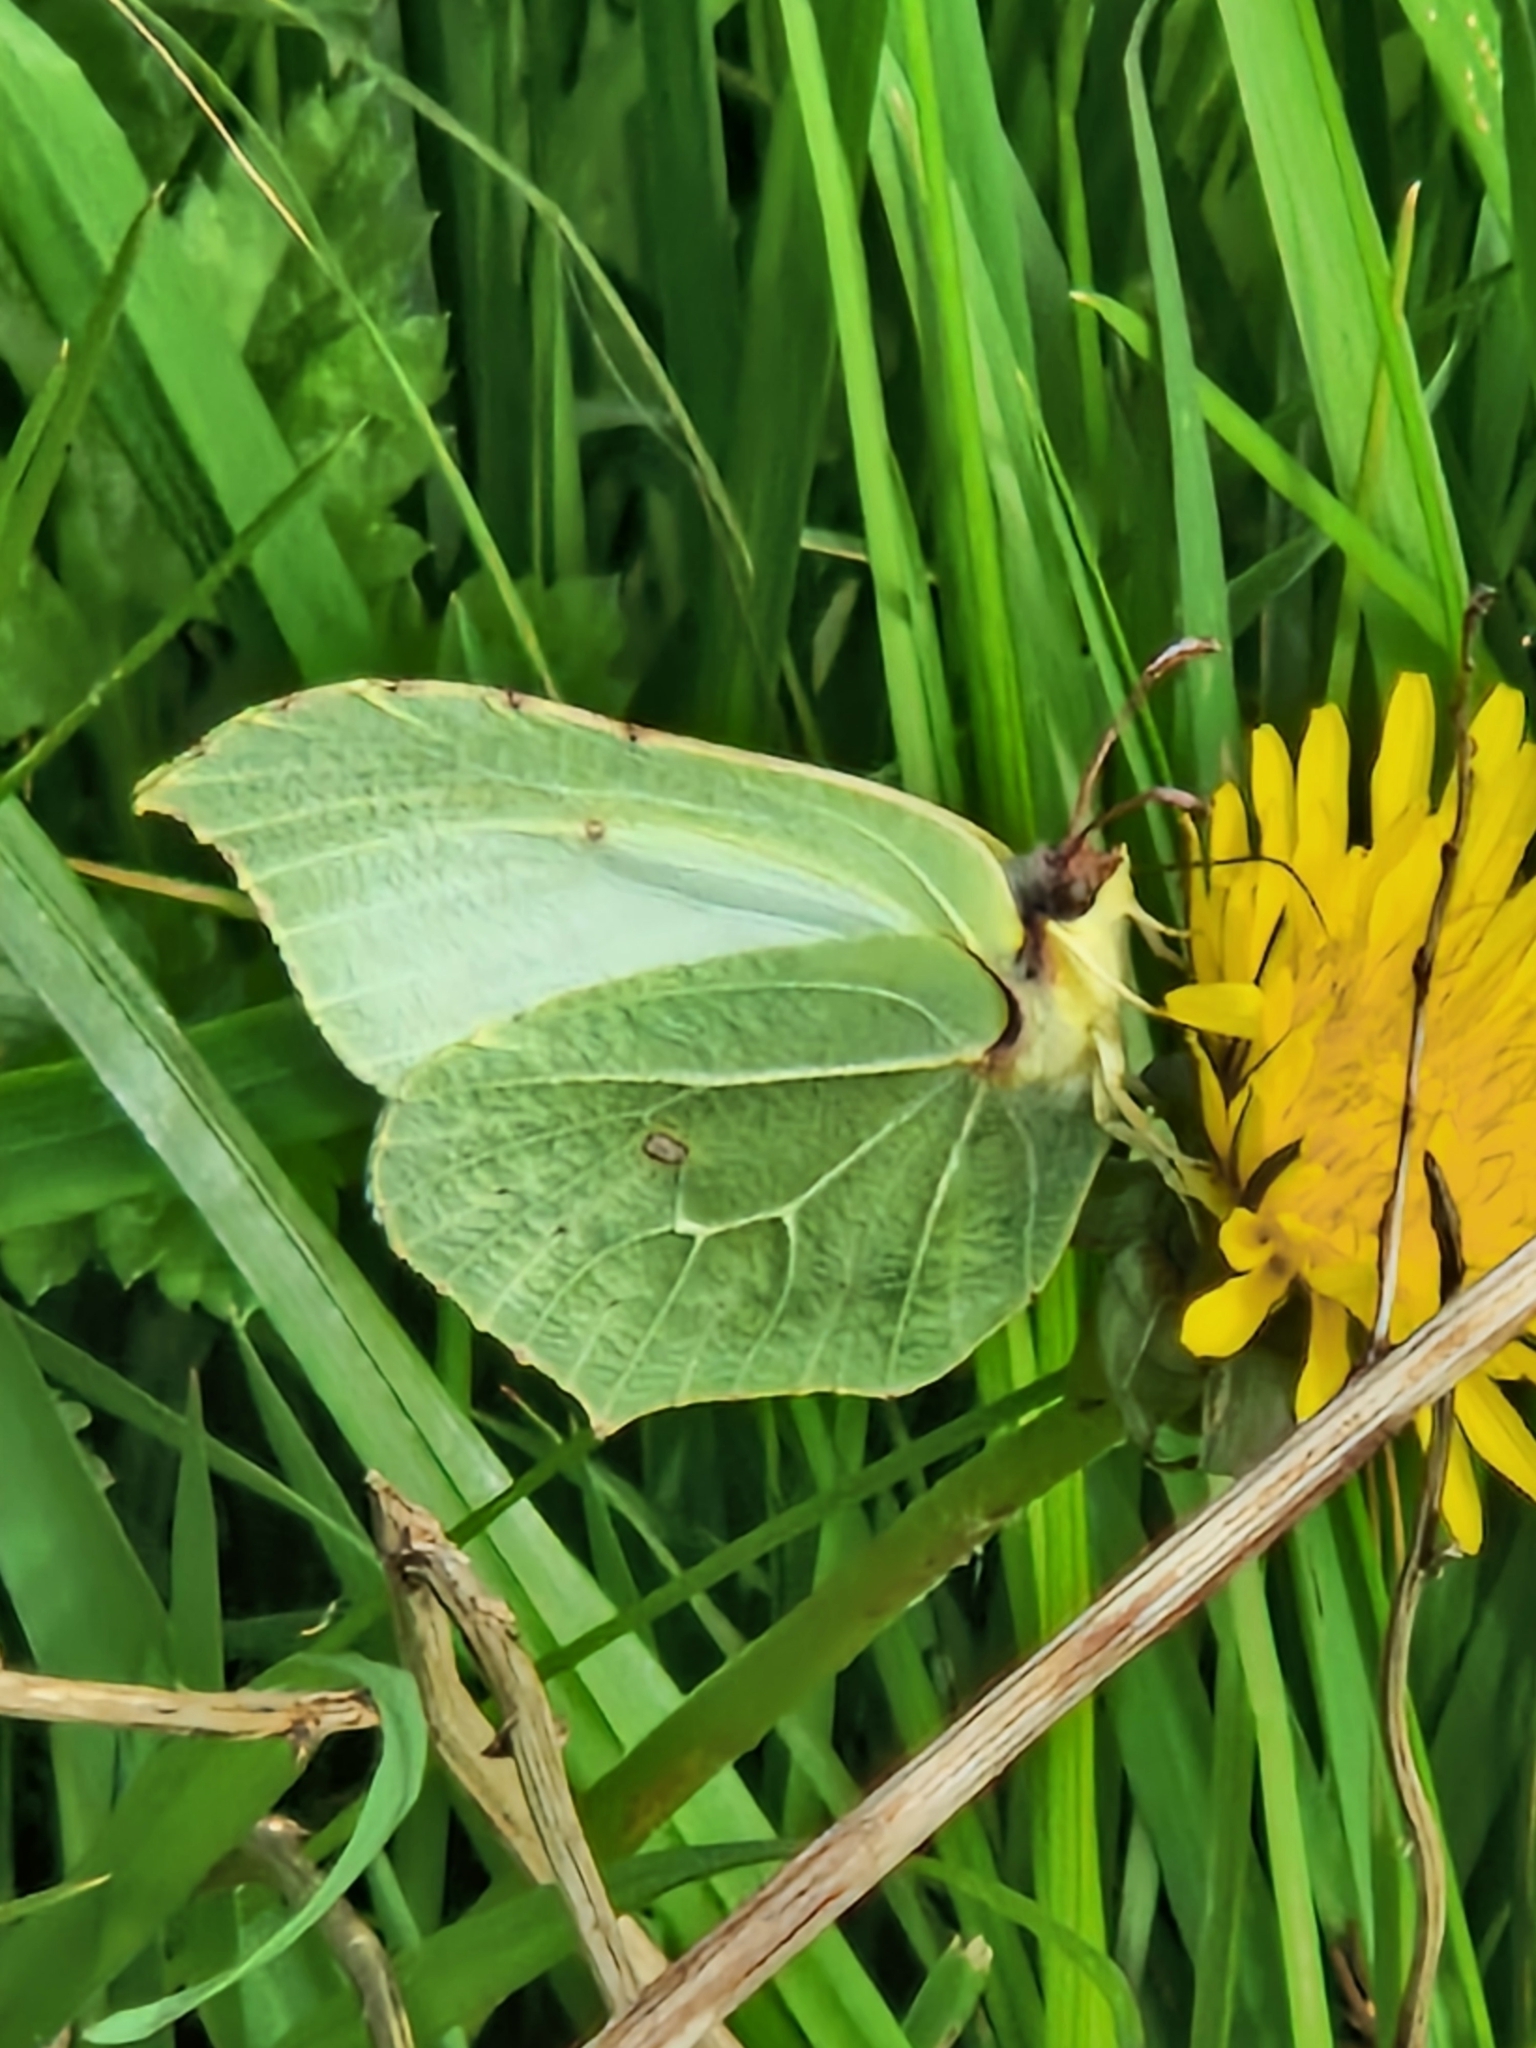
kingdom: Animalia
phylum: Arthropoda
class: Insecta
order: Lepidoptera
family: Pieridae
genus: Gonepteryx
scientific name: Gonepteryx rhamni
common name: Brimstone
